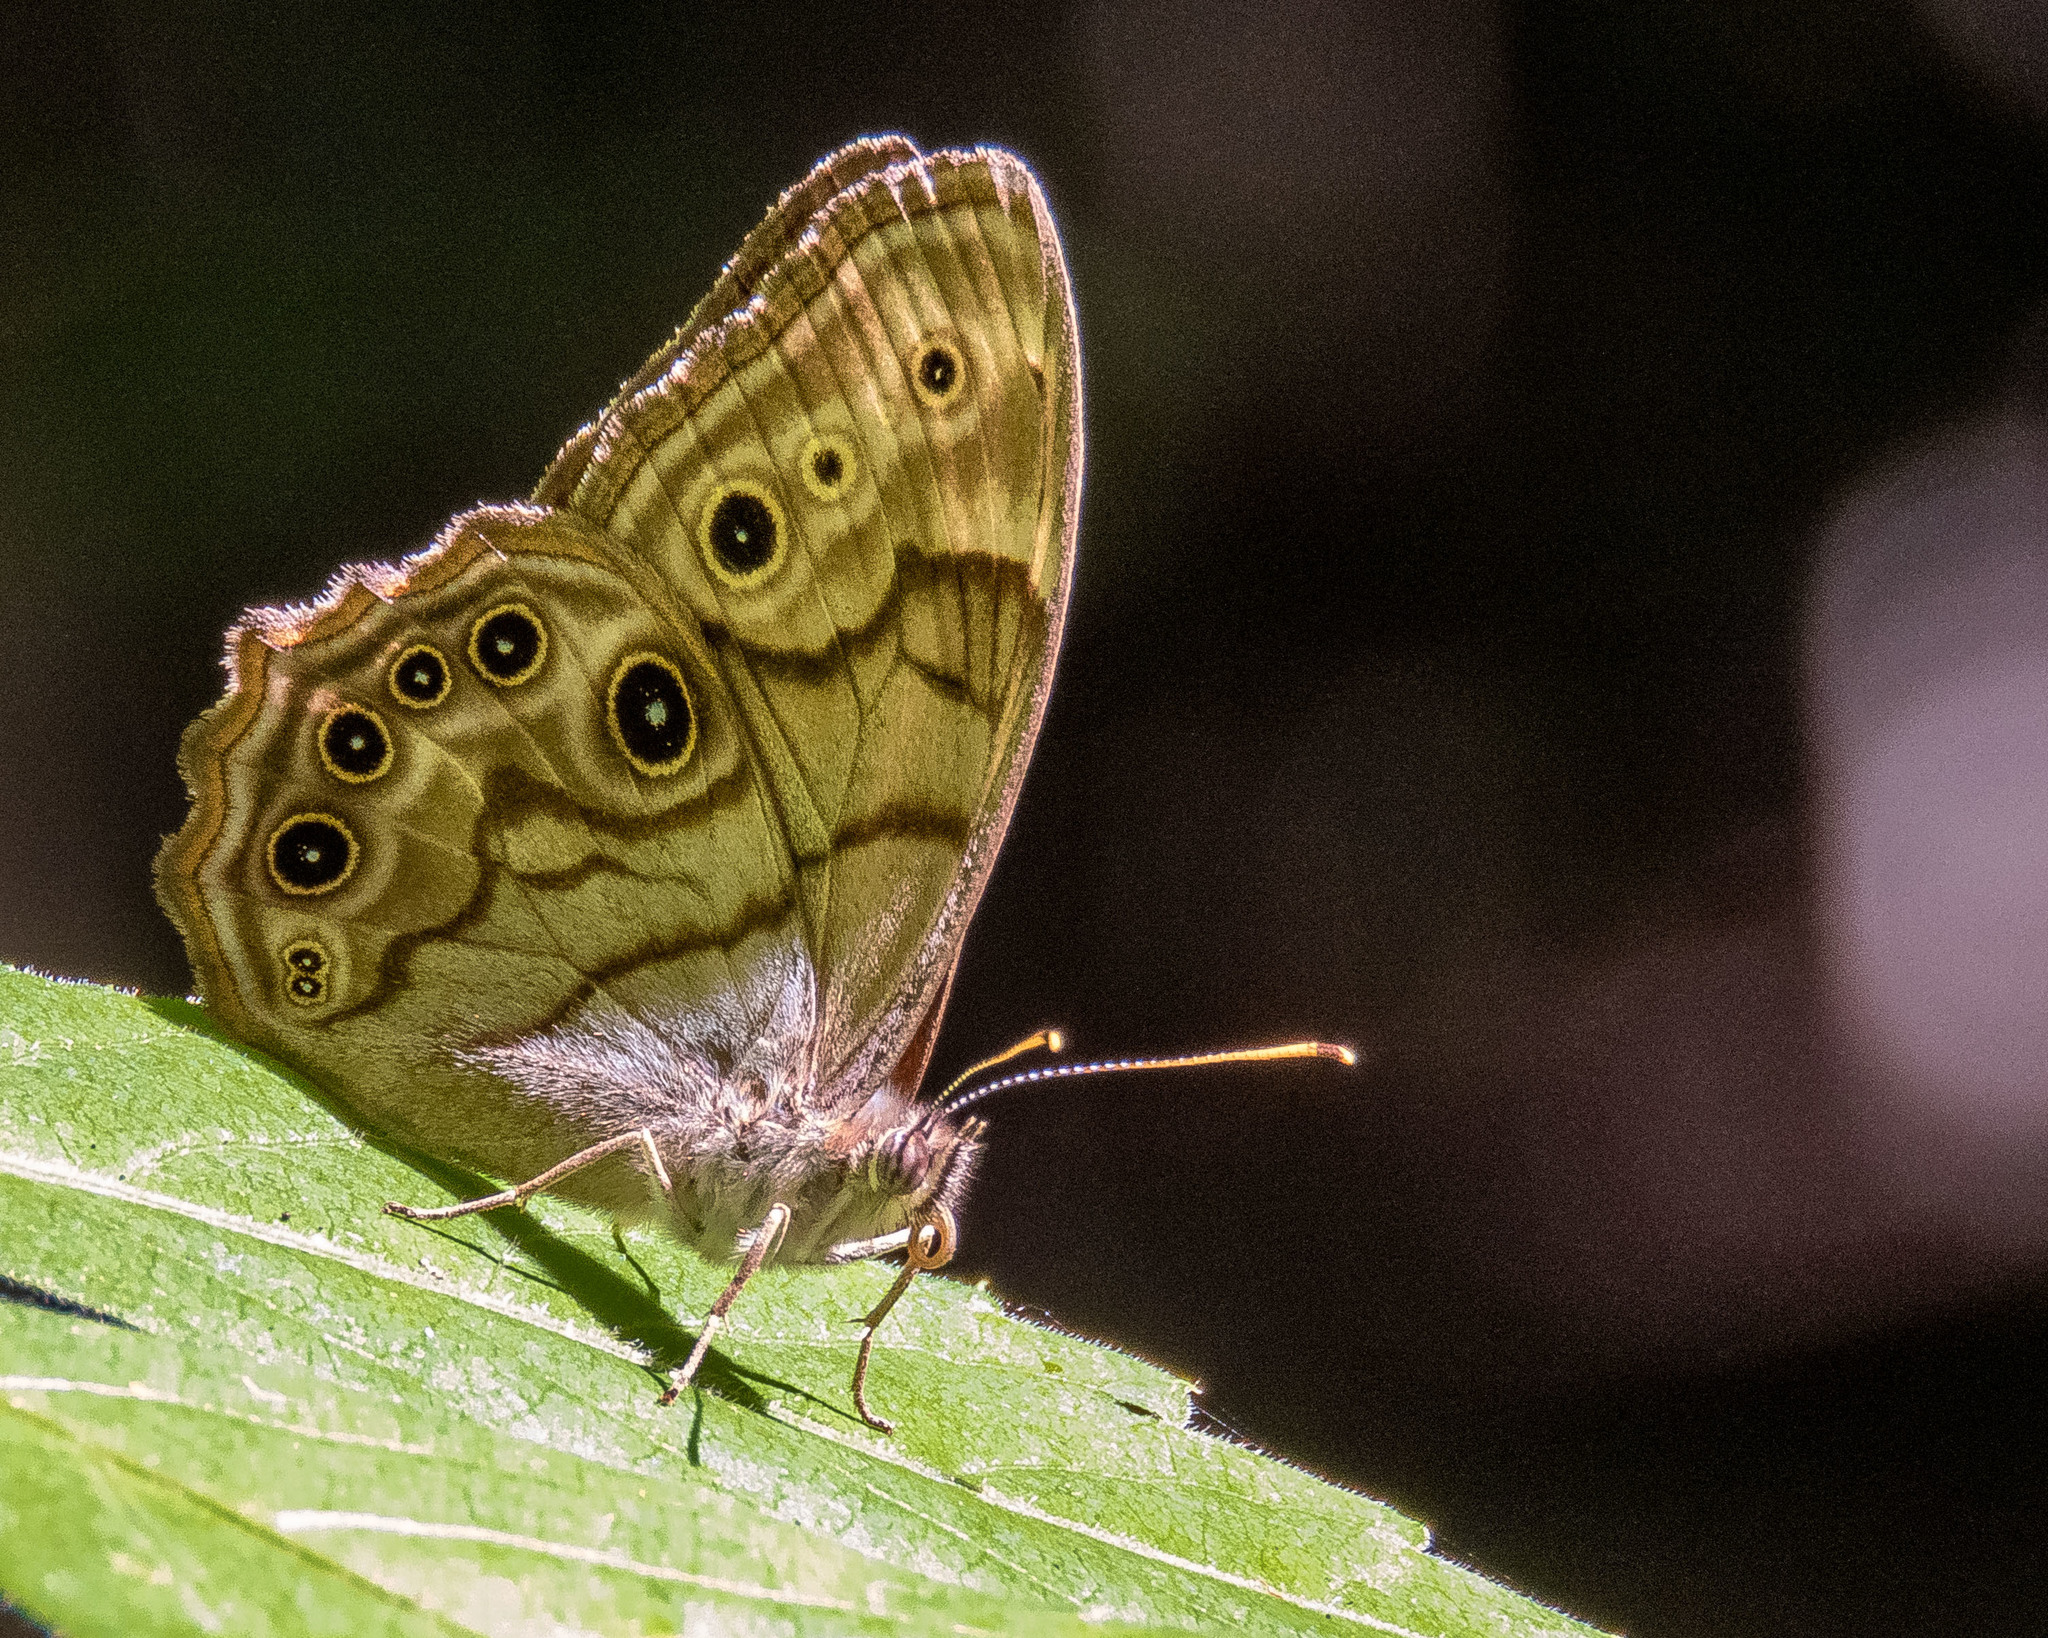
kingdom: Animalia
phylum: Arthropoda
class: Insecta
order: Lepidoptera
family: Nymphalidae
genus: Lethe
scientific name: Lethe anthedon
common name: Northern pearly-eye
